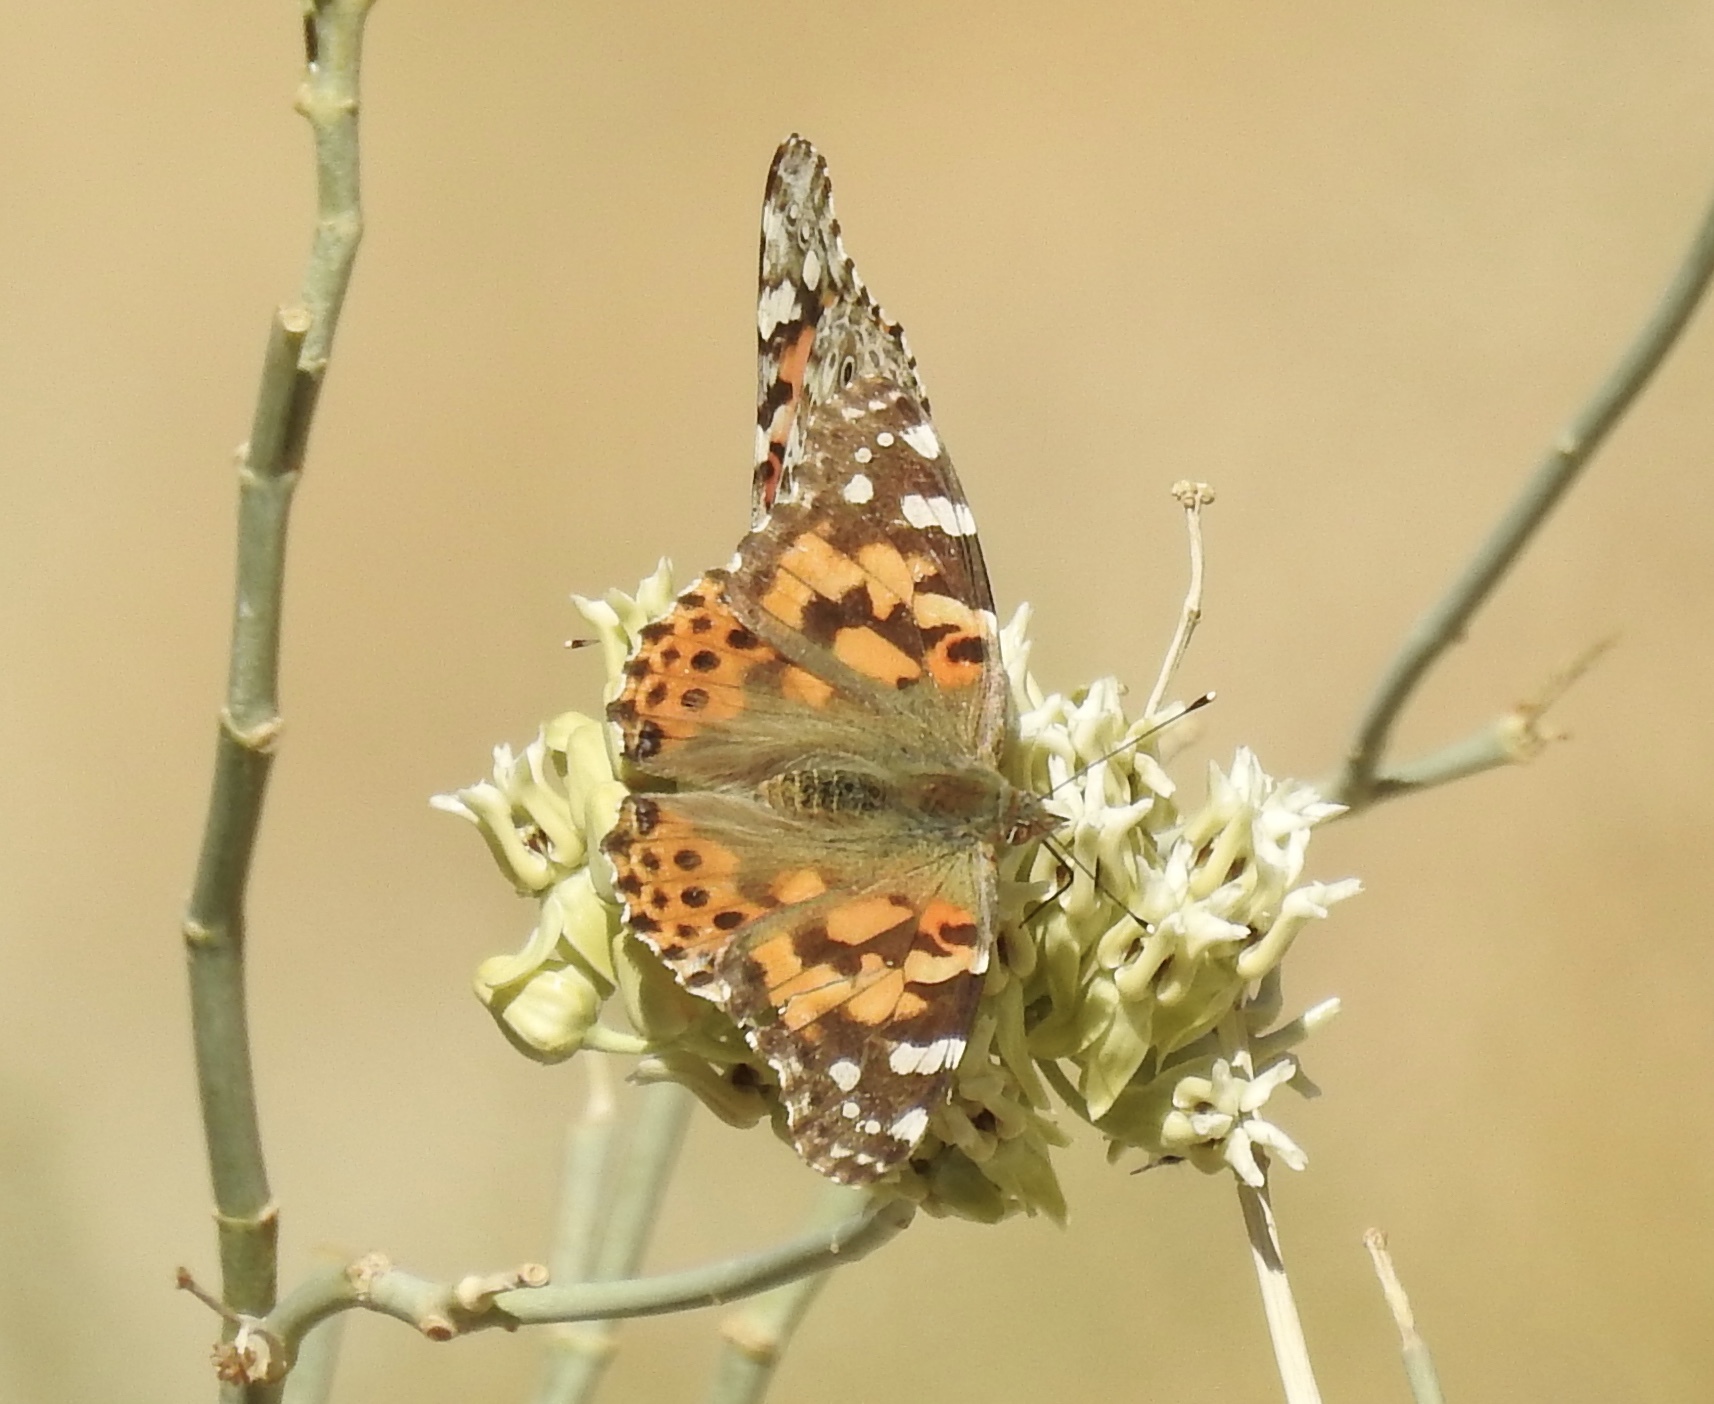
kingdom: Animalia
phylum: Arthropoda
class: Insecta
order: Lepidoptera
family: Nymphalidae
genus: Vanessa
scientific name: Vanessa cardui
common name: Painted lady
